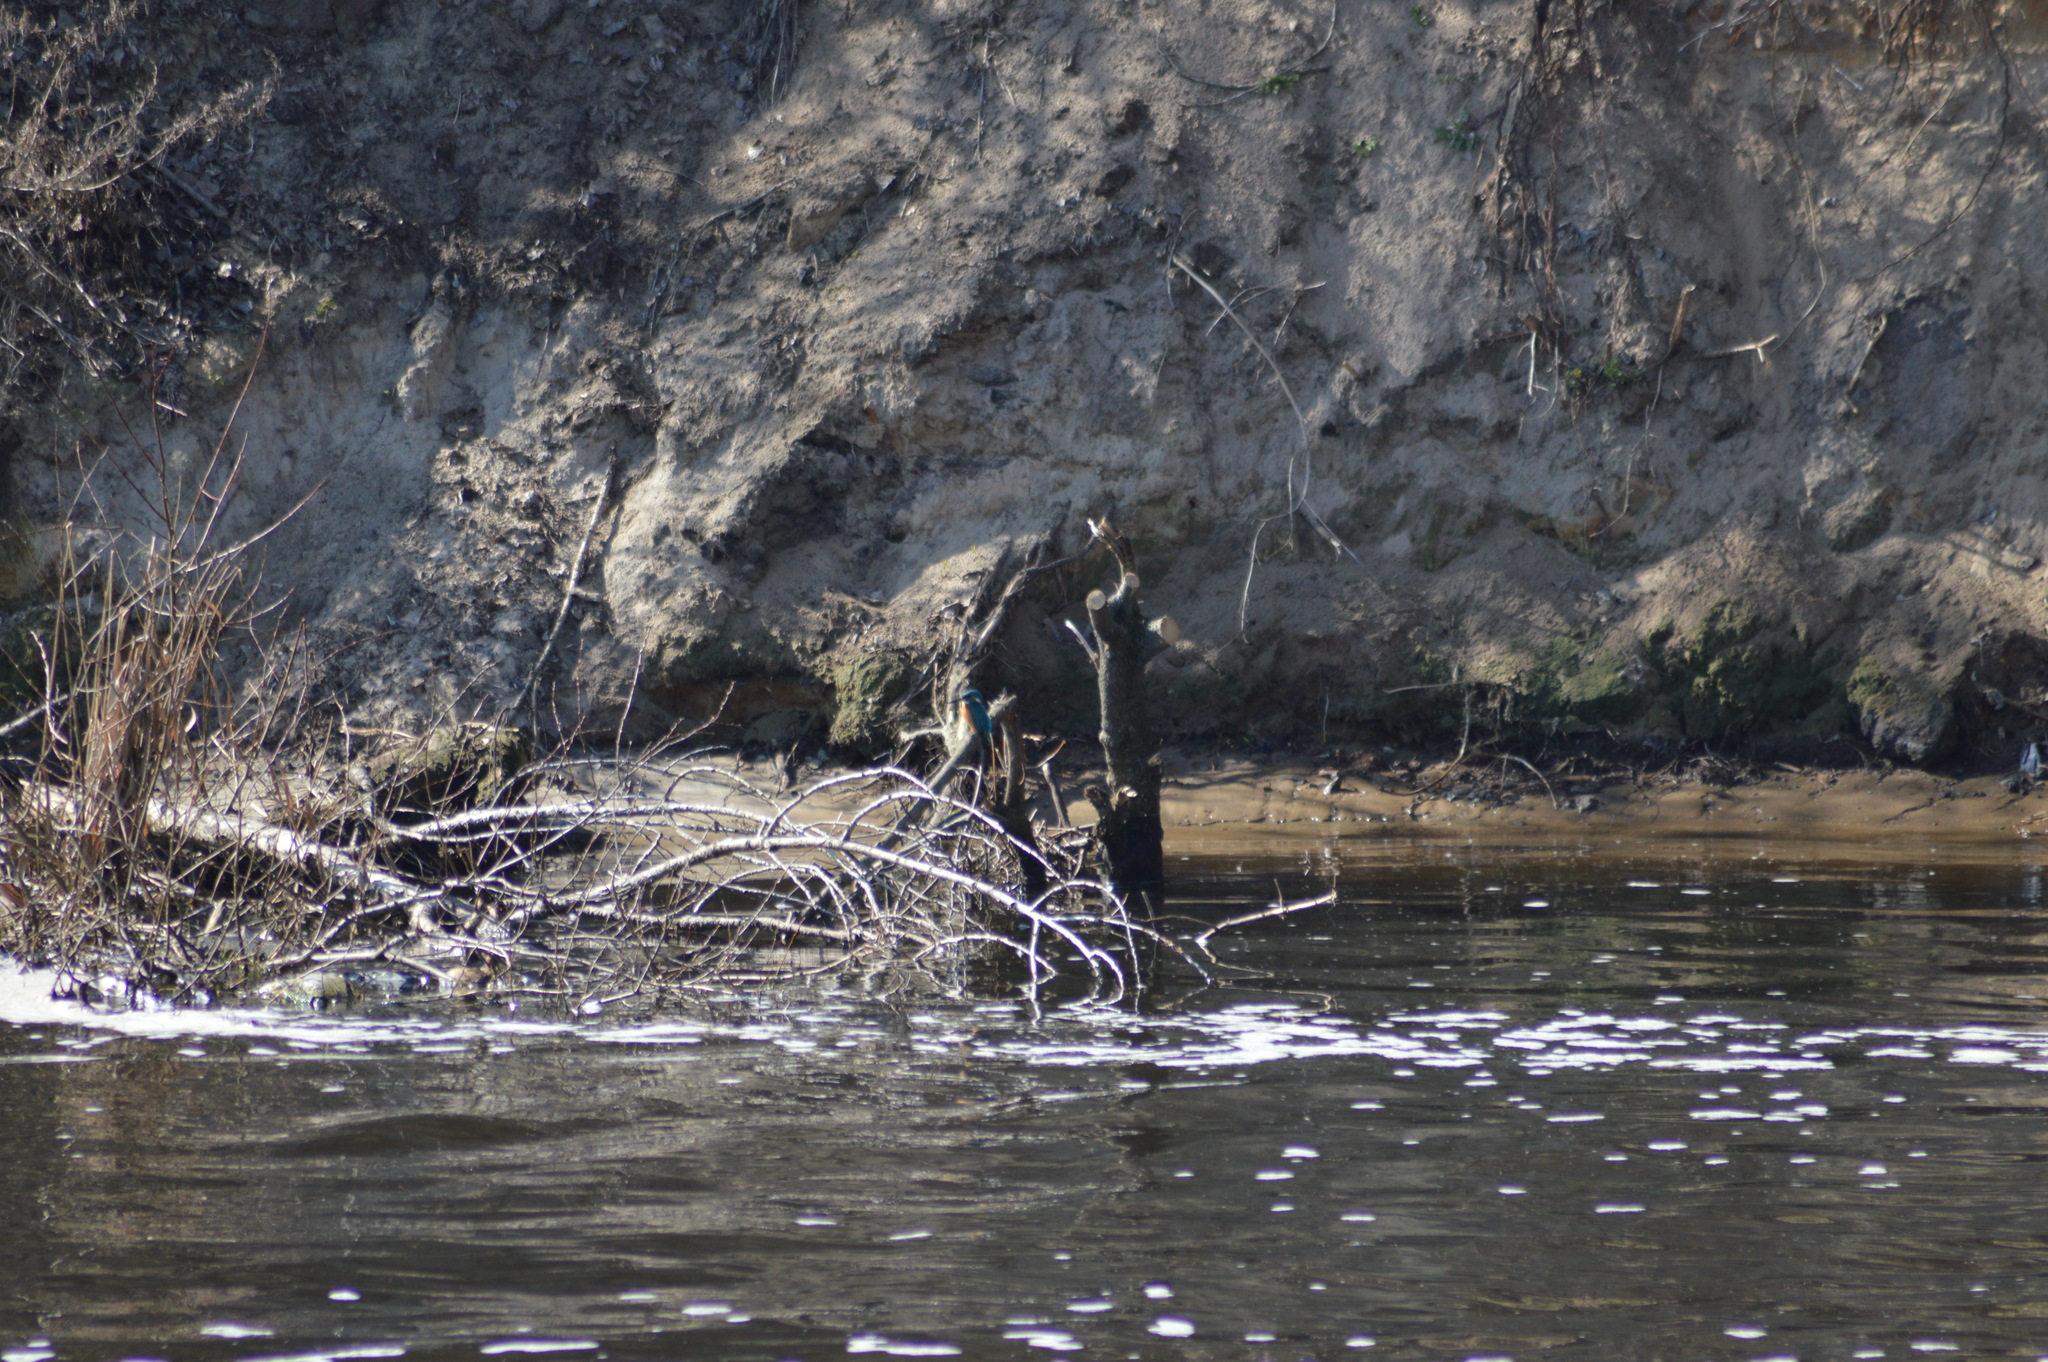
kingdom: Animalia
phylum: Chordata
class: Aves
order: Coraciiformes
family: Alcedinidae
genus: Alcedo
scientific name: Alcedo atthis
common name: Common kingfisher
